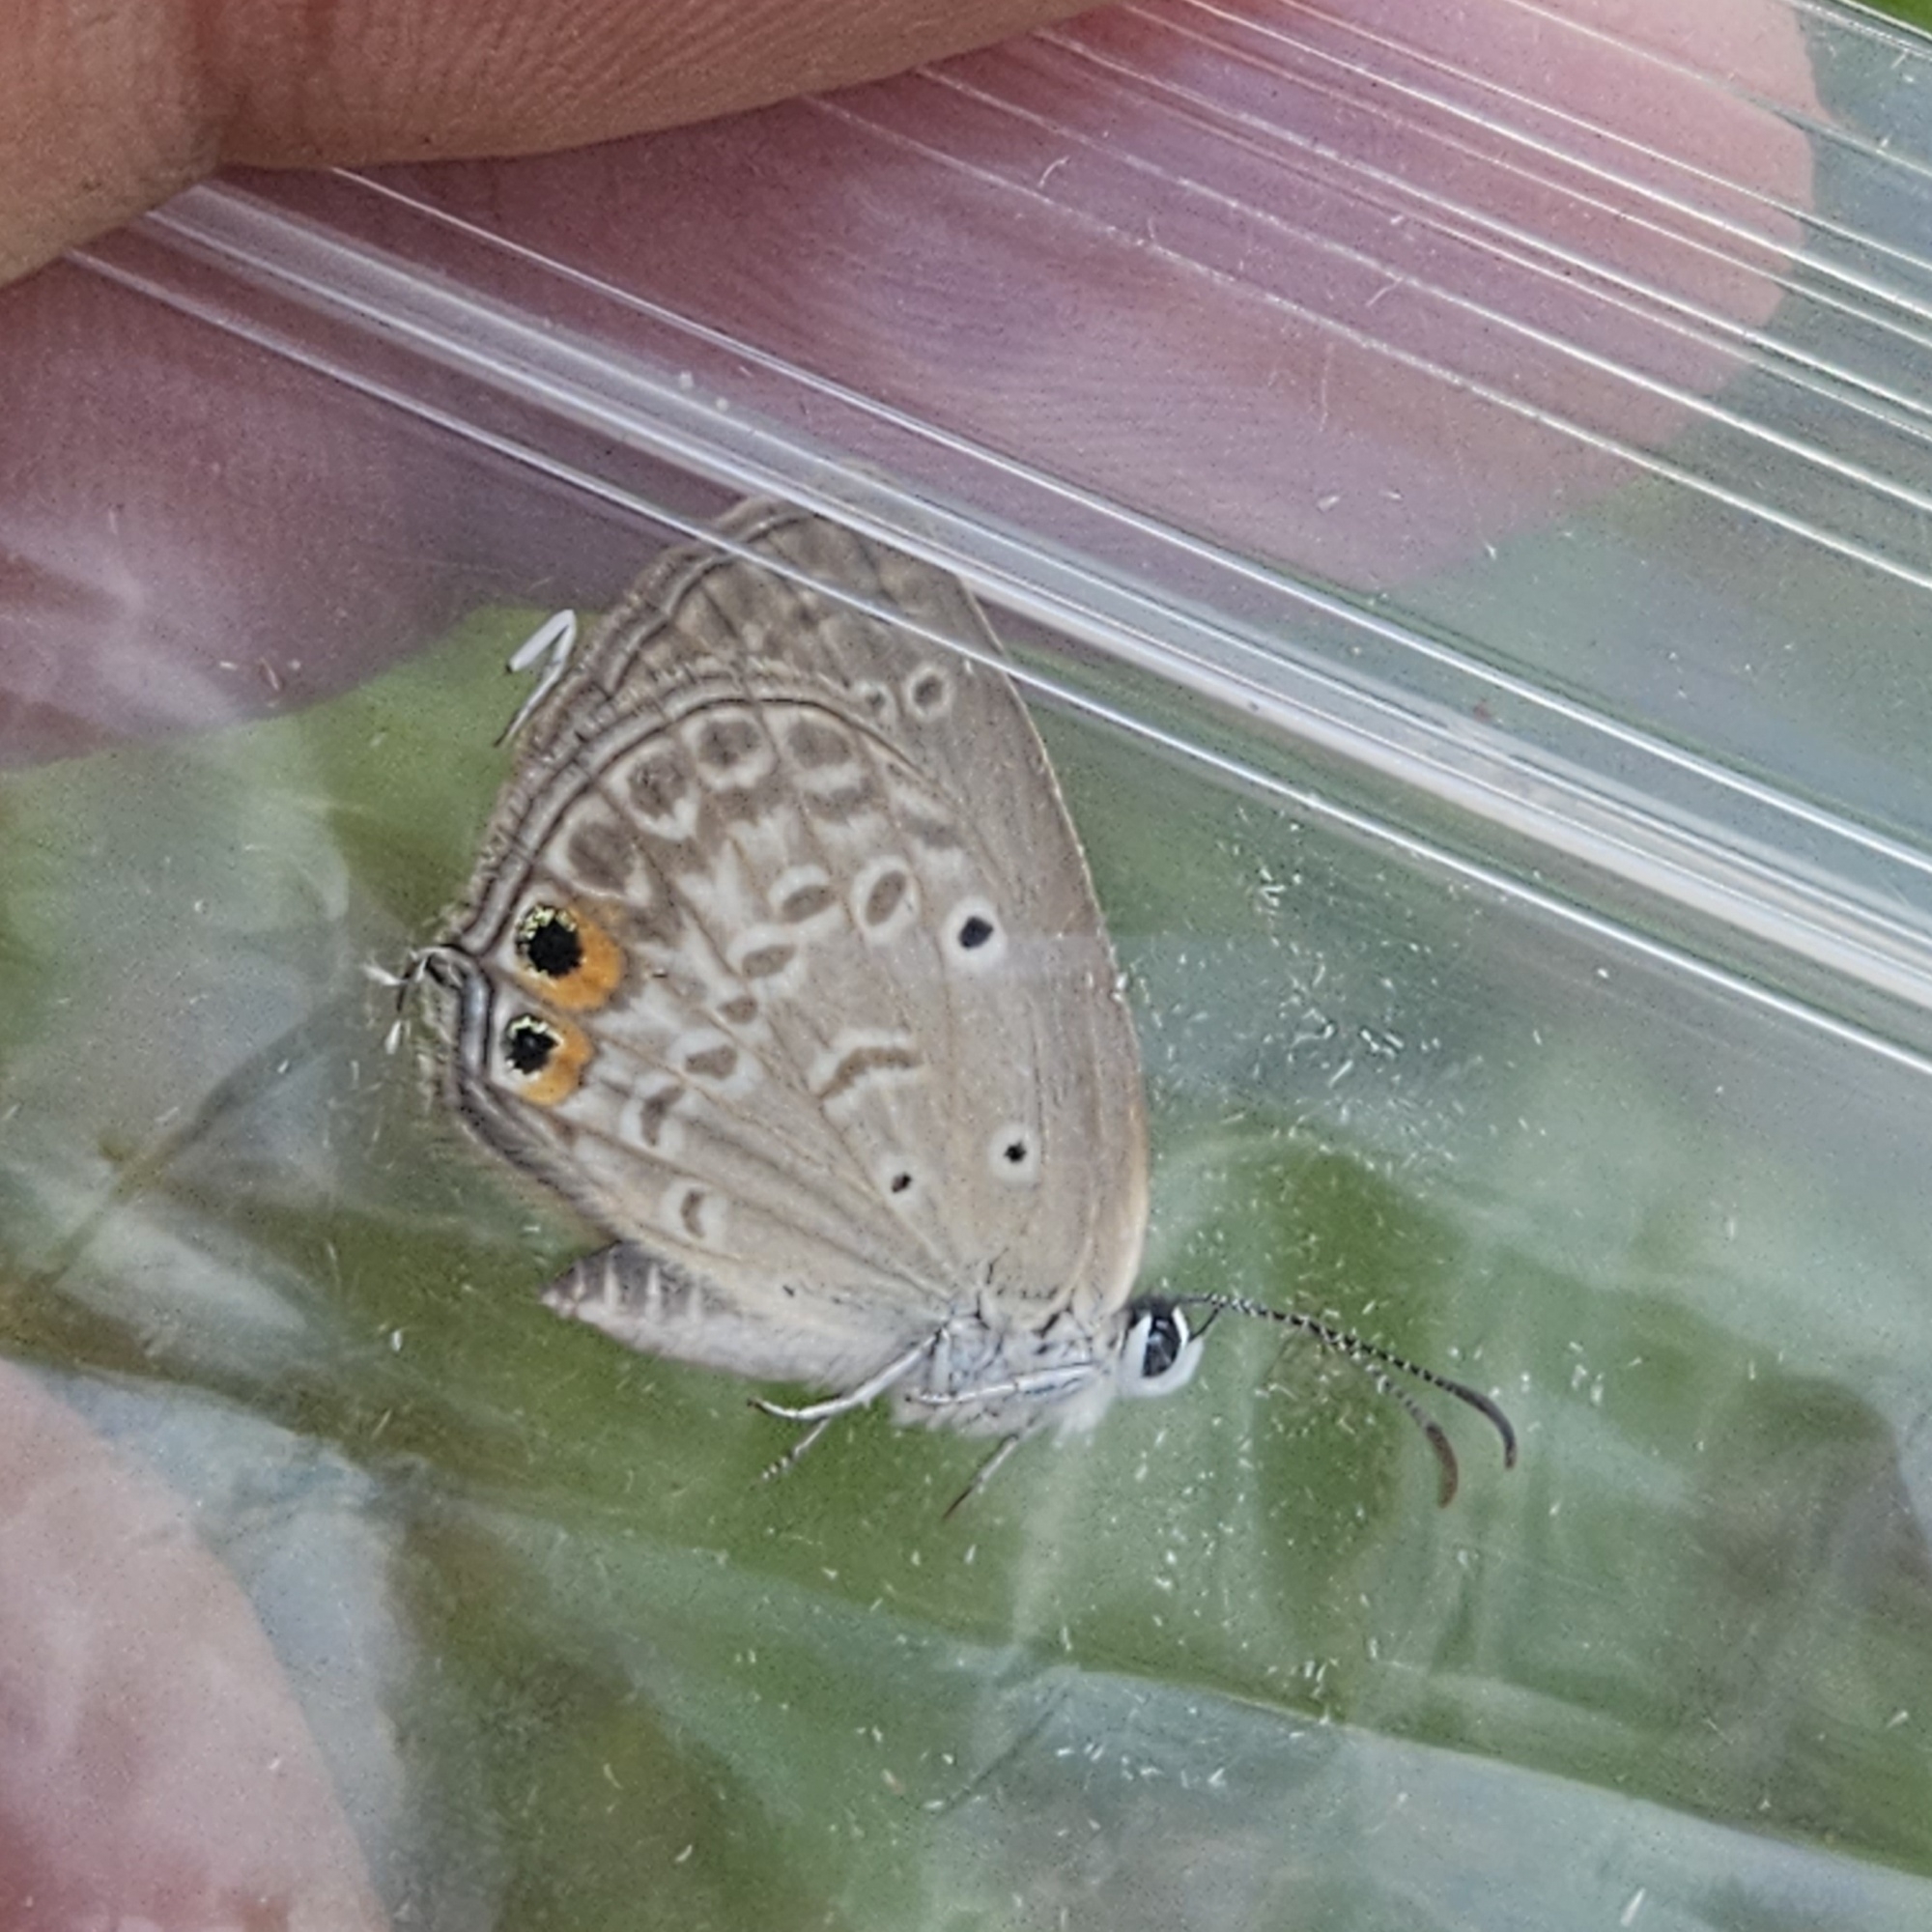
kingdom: Animalia
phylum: Arthropoda
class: Insecta
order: Lepidoptera
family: Lycaenidae
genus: Euchrysops
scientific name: Euchrysops cnejus
